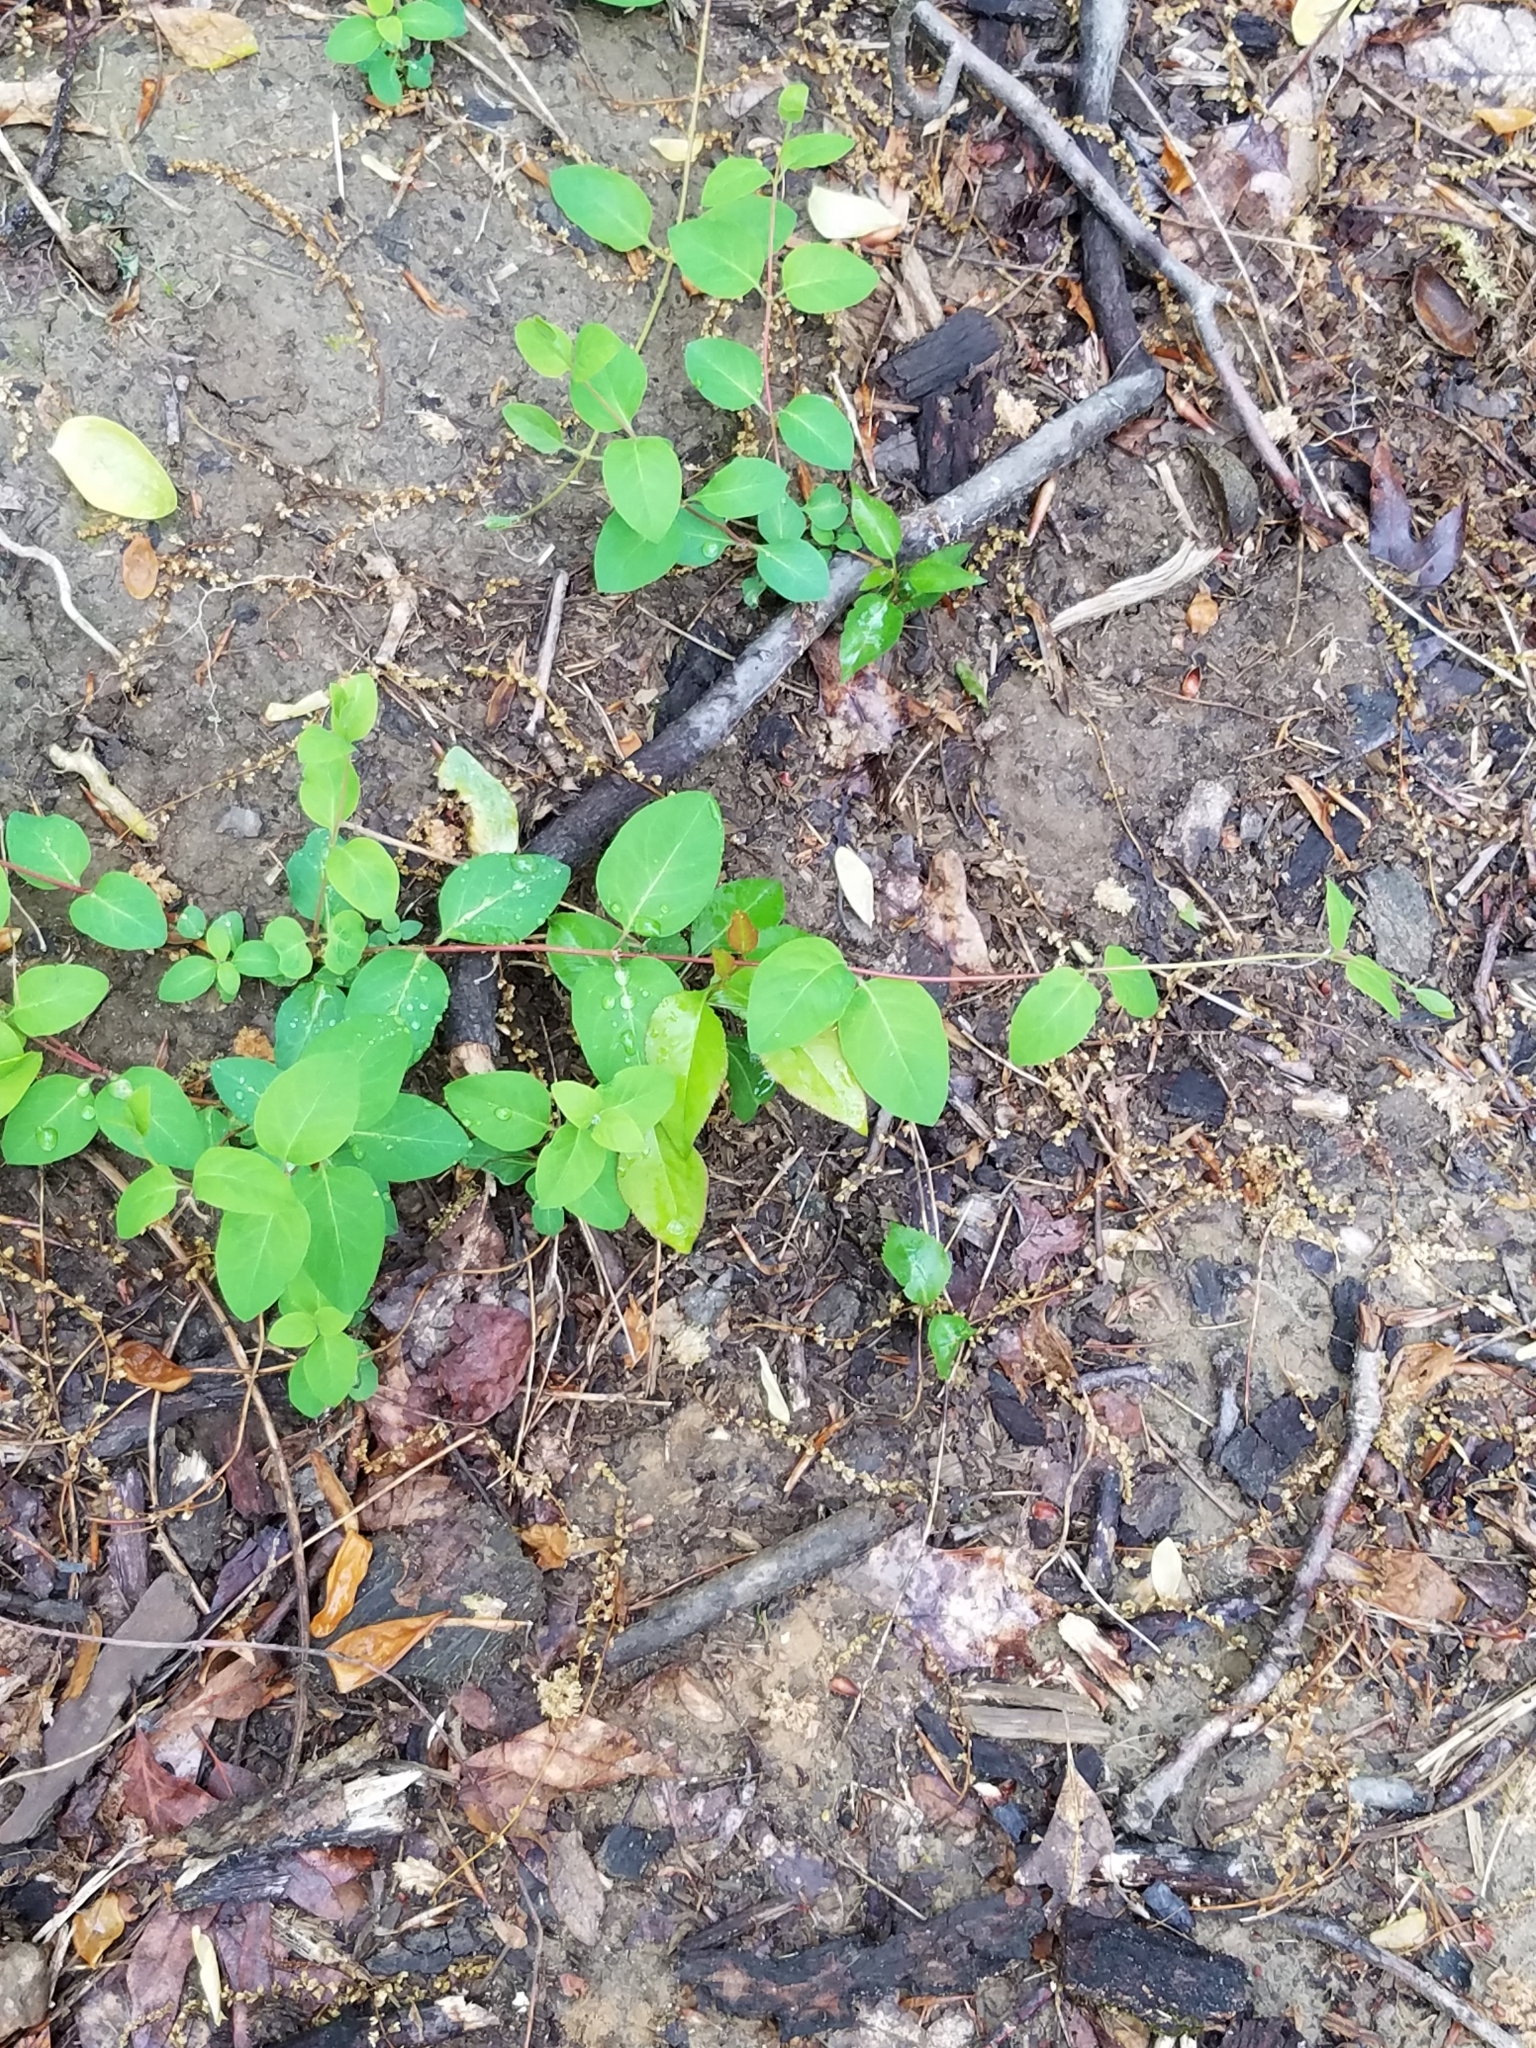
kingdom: Plantae
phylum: Tracheophyta
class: Magnoliopsida
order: Dipsacales
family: Caprifoliaceae
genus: Lonicera
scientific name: Lonicera japonica
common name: Japanese honeysuckle
